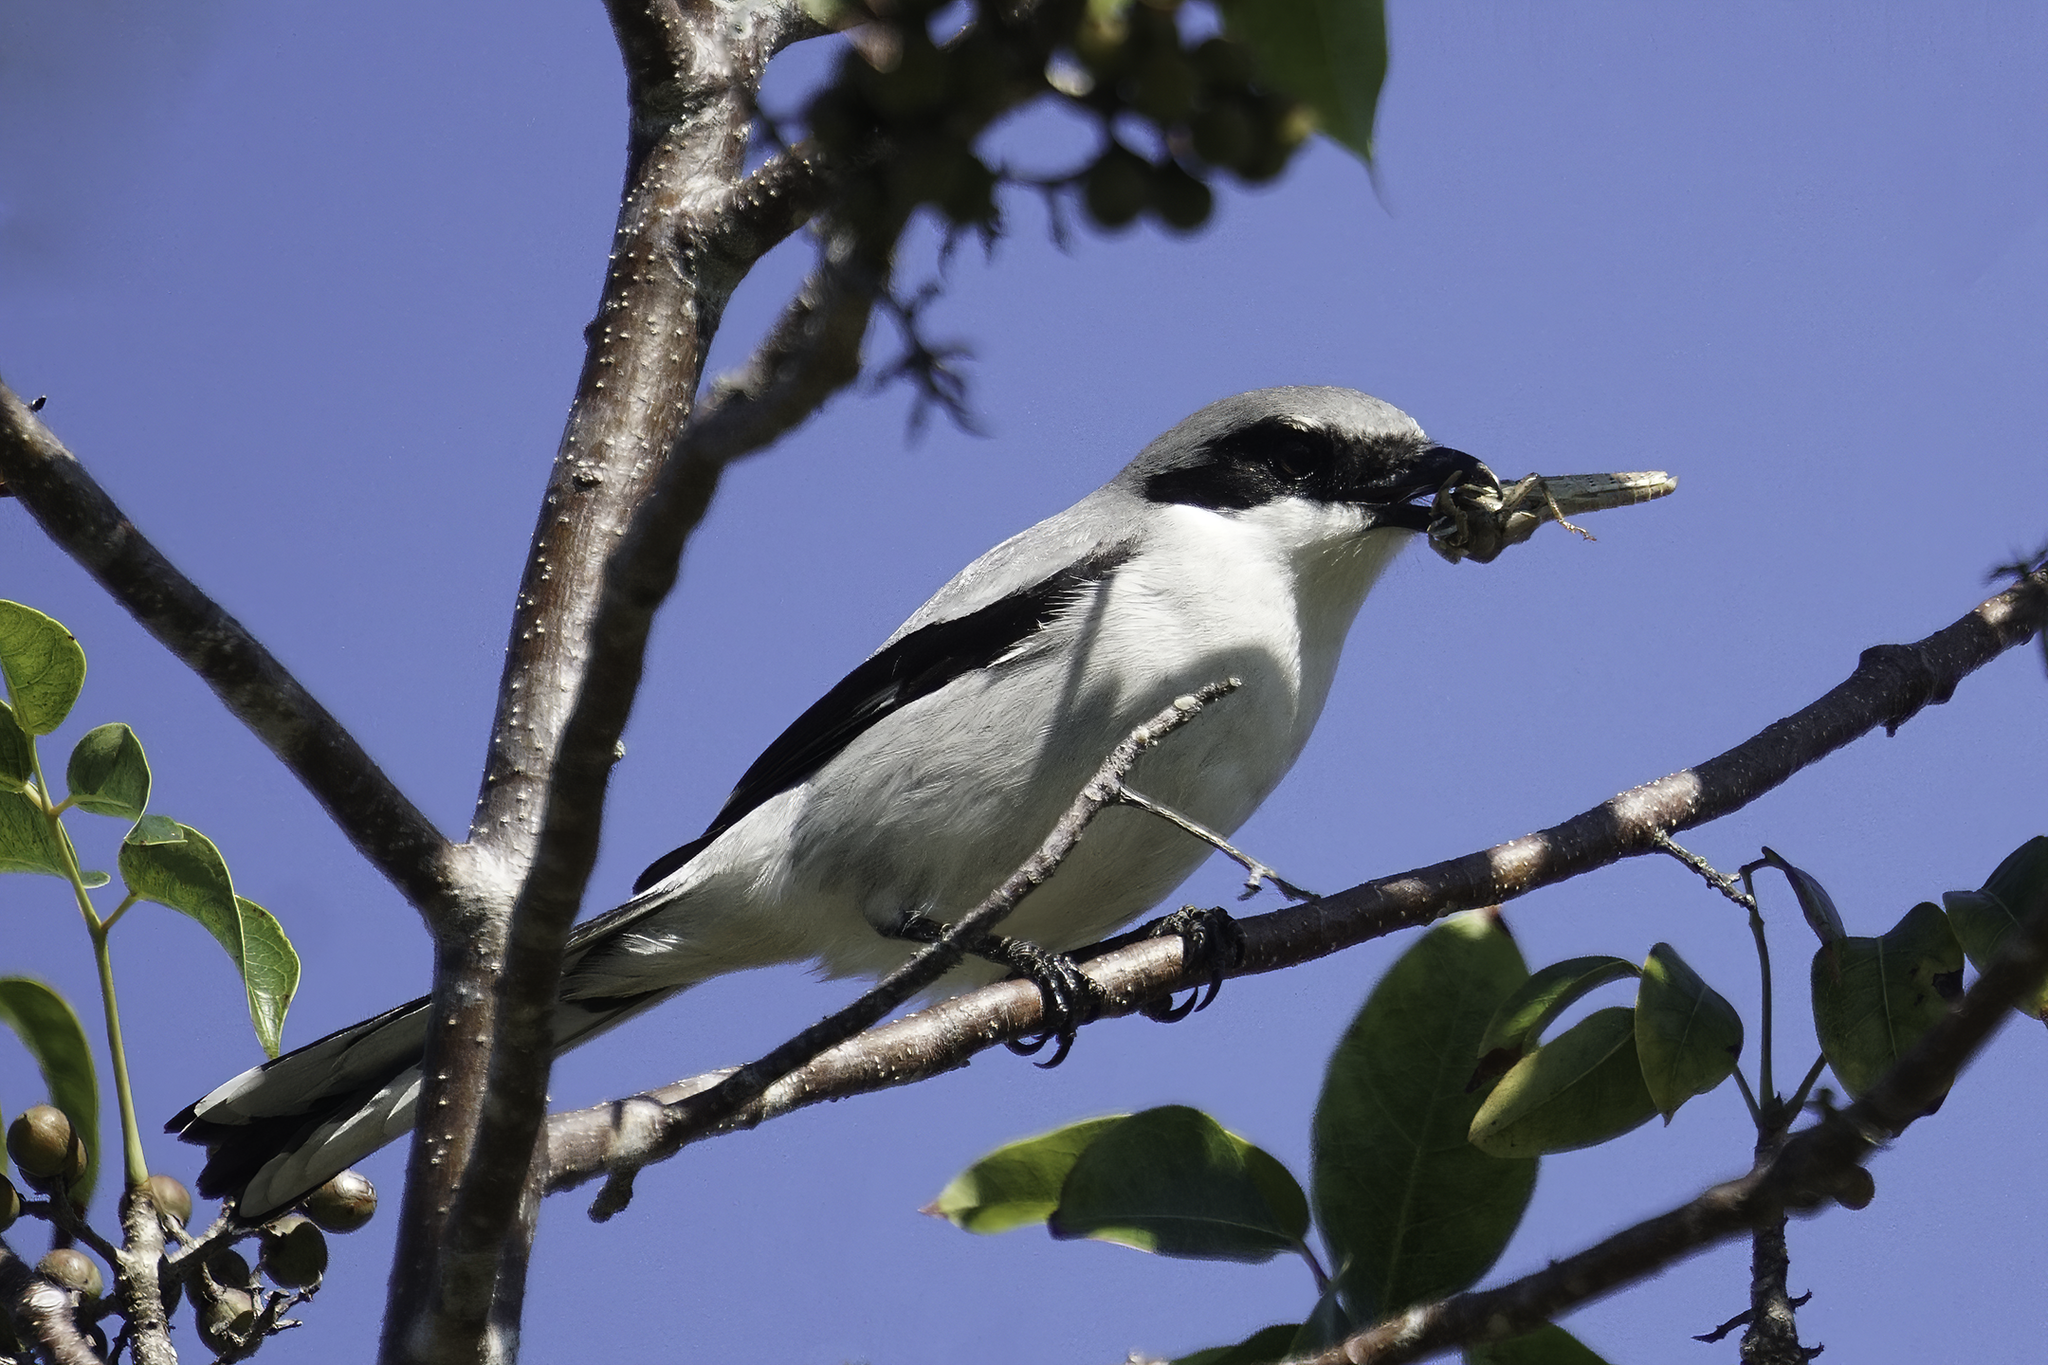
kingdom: Animalia
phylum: Chordata
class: Aves
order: Passeriformes
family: Laniidae
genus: Lanius
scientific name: Lanius ludovicianus
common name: Loggerhead shrike
